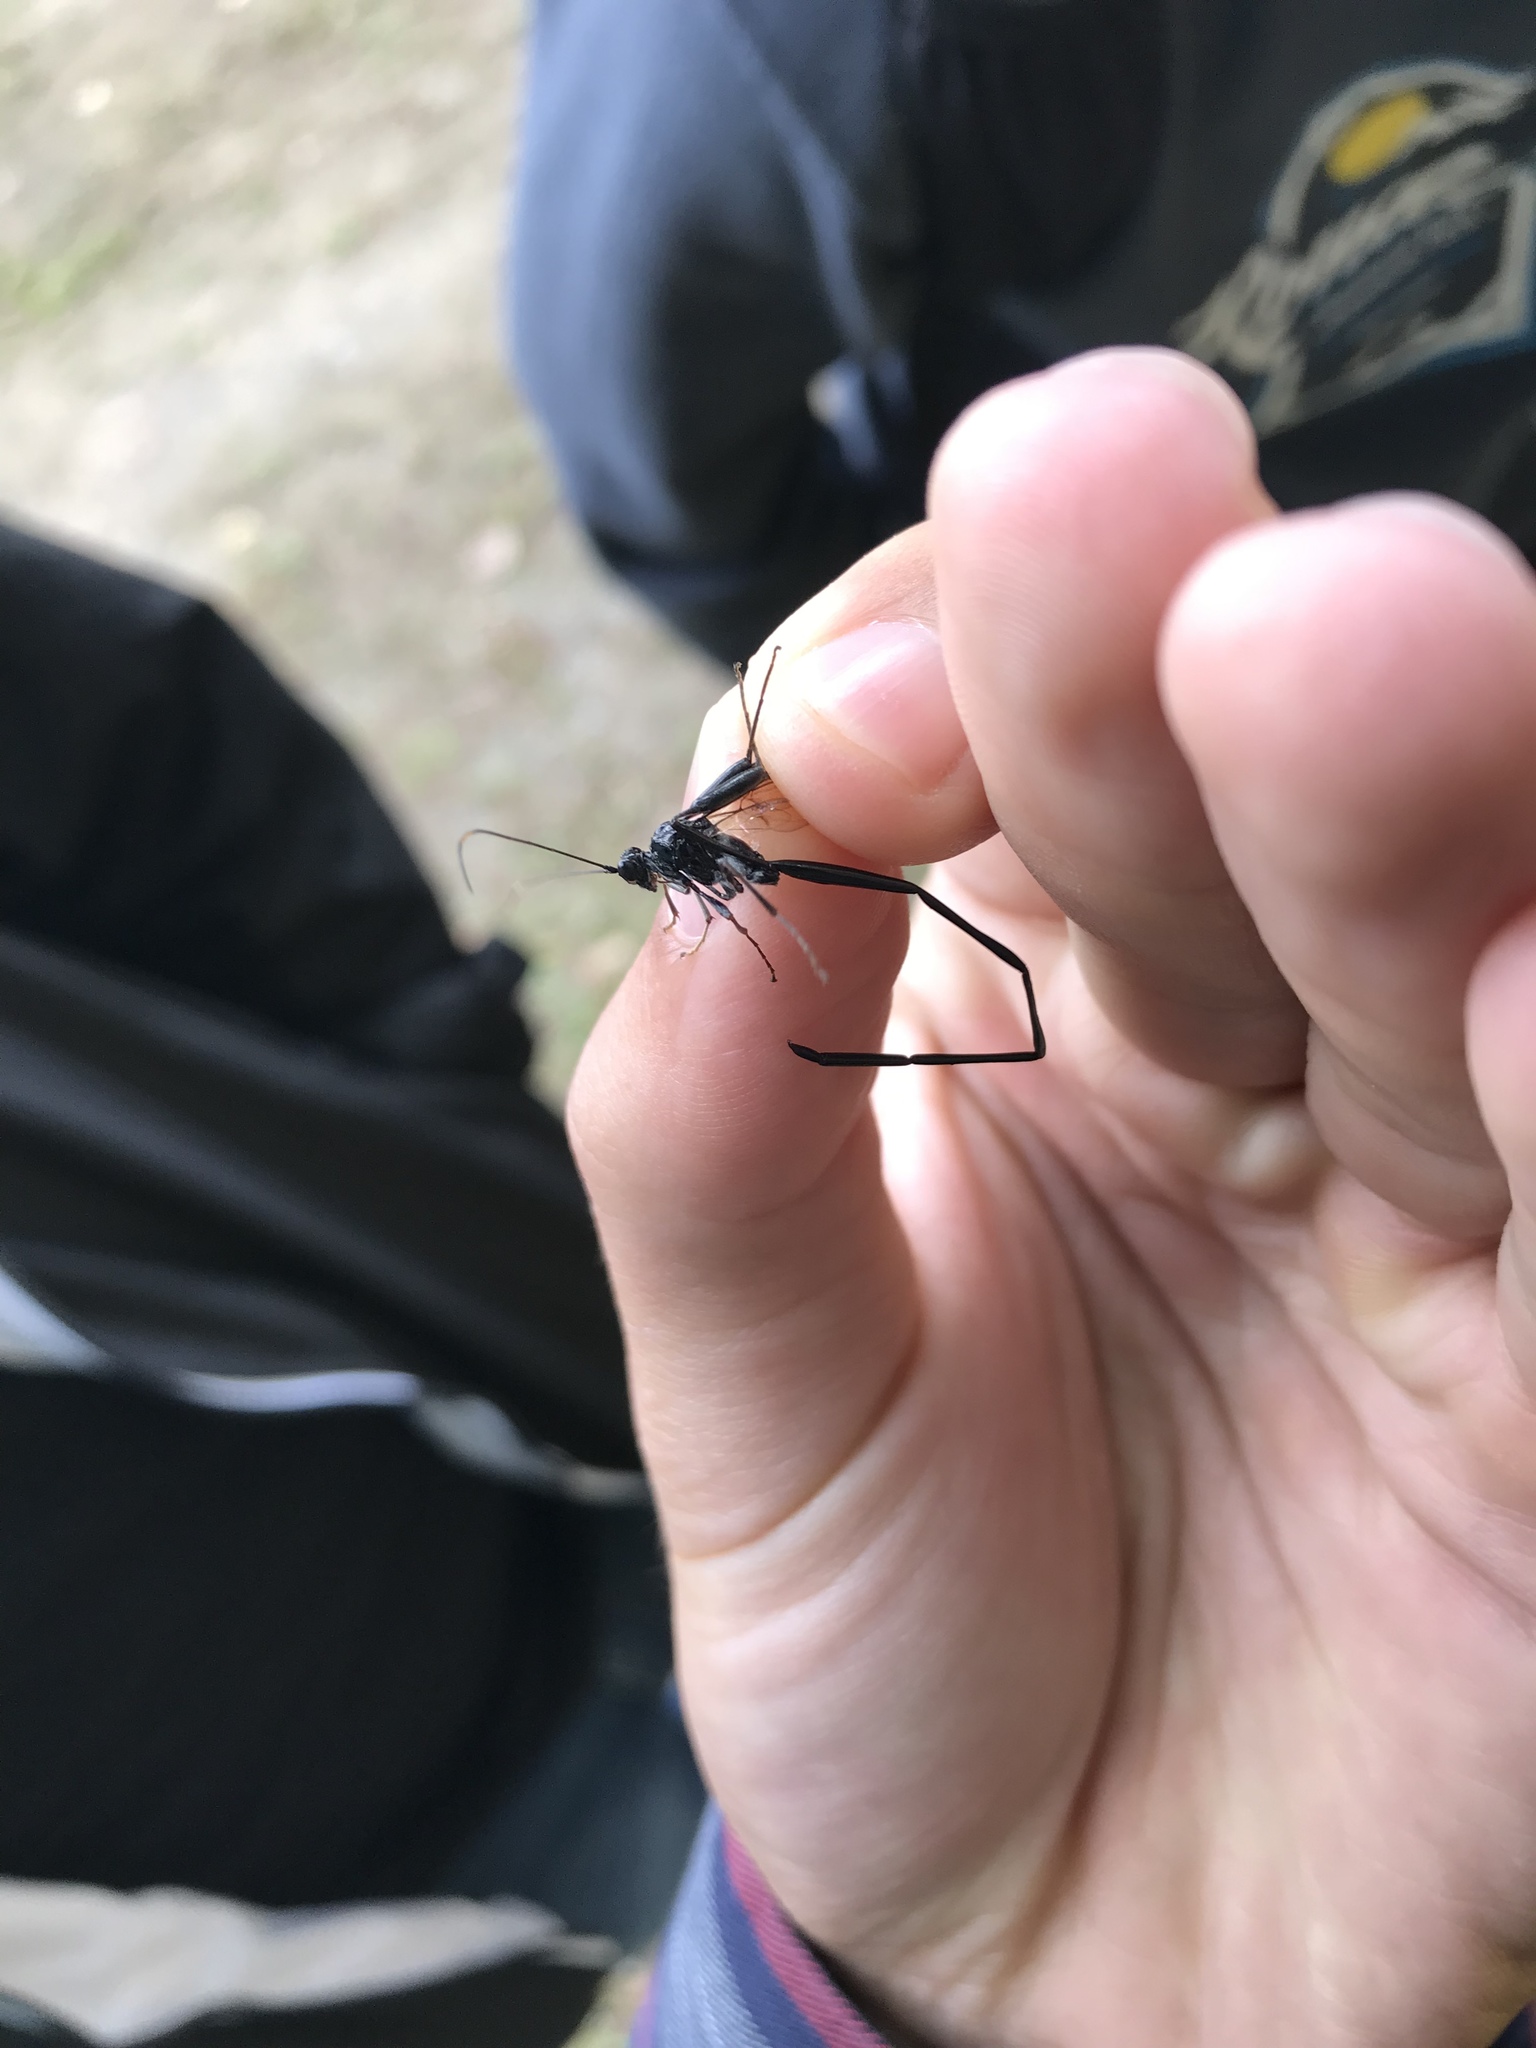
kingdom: Animalia
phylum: Arthropoda
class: Insecta
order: Hymenoptera
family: Pelecinidae
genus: Pelecinus
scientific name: Pelecinus polyturator
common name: American pelecinid wasp
